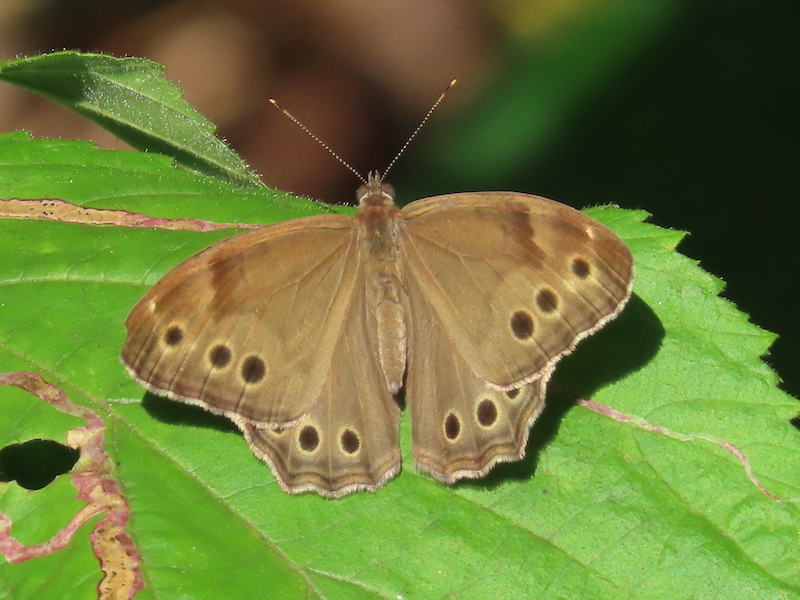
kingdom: Animalia
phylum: Arthropoda
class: Insecta
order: Lepidoptera
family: Nymphalidae
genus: Lethe
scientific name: Lethe anthedon
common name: Northern pearly-eye
